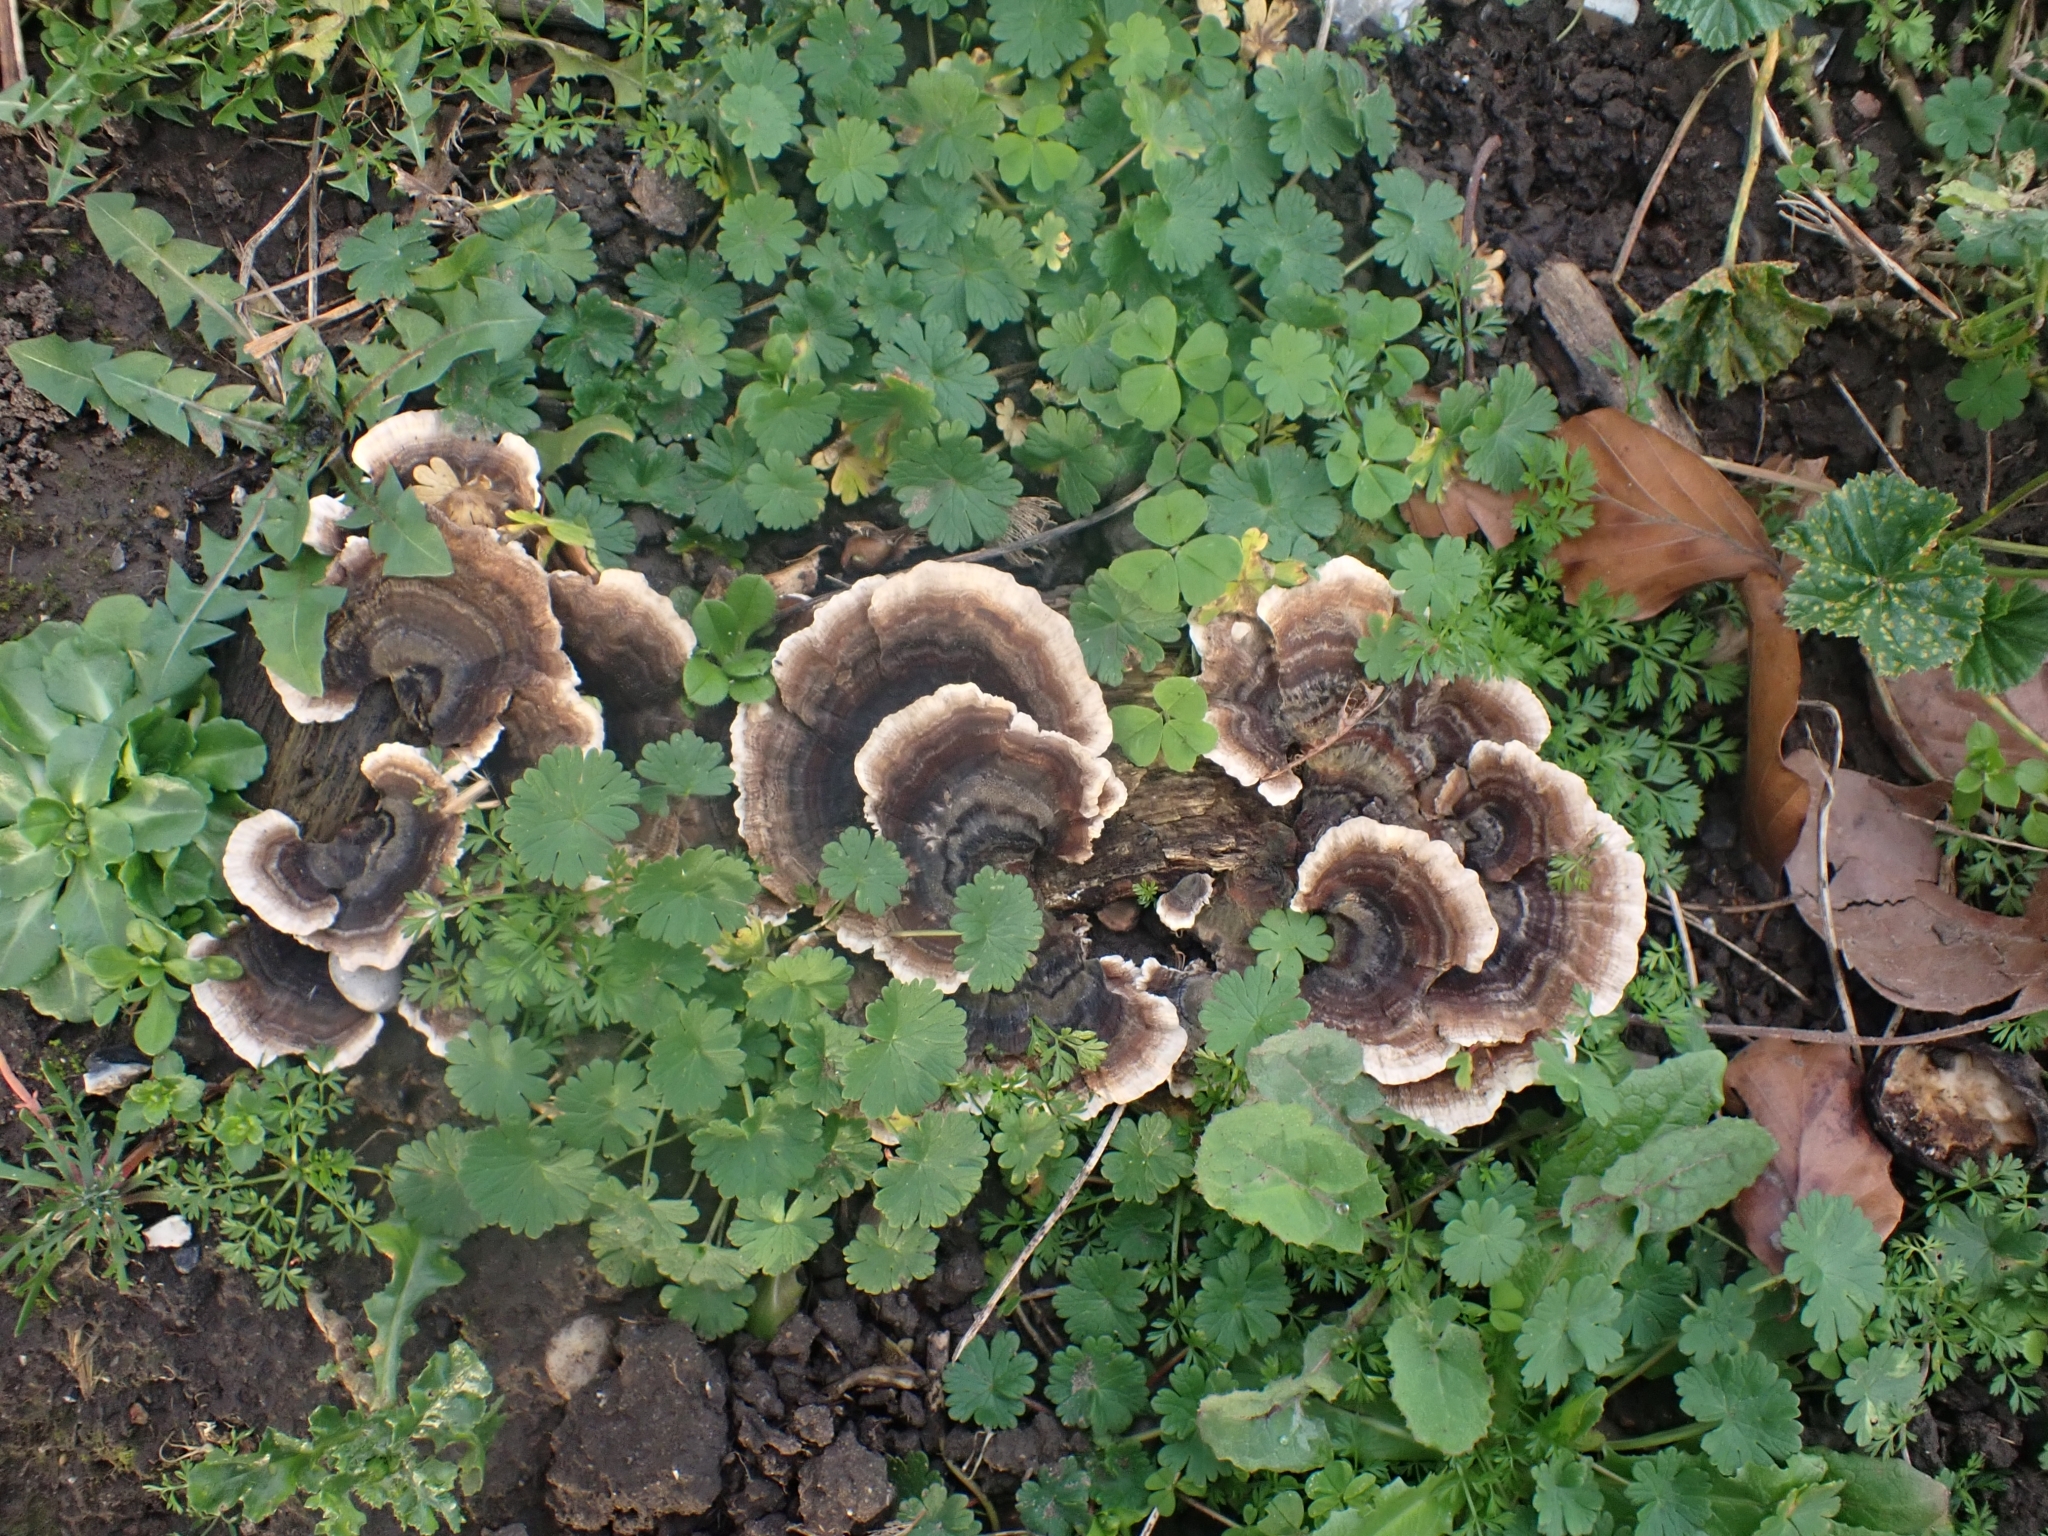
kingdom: Fungi
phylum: Basidiomycota
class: Agaricomycetes
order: Polyporales
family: Polyporaceae
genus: Trametes
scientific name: Trametes versicolor
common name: Turkeytail
